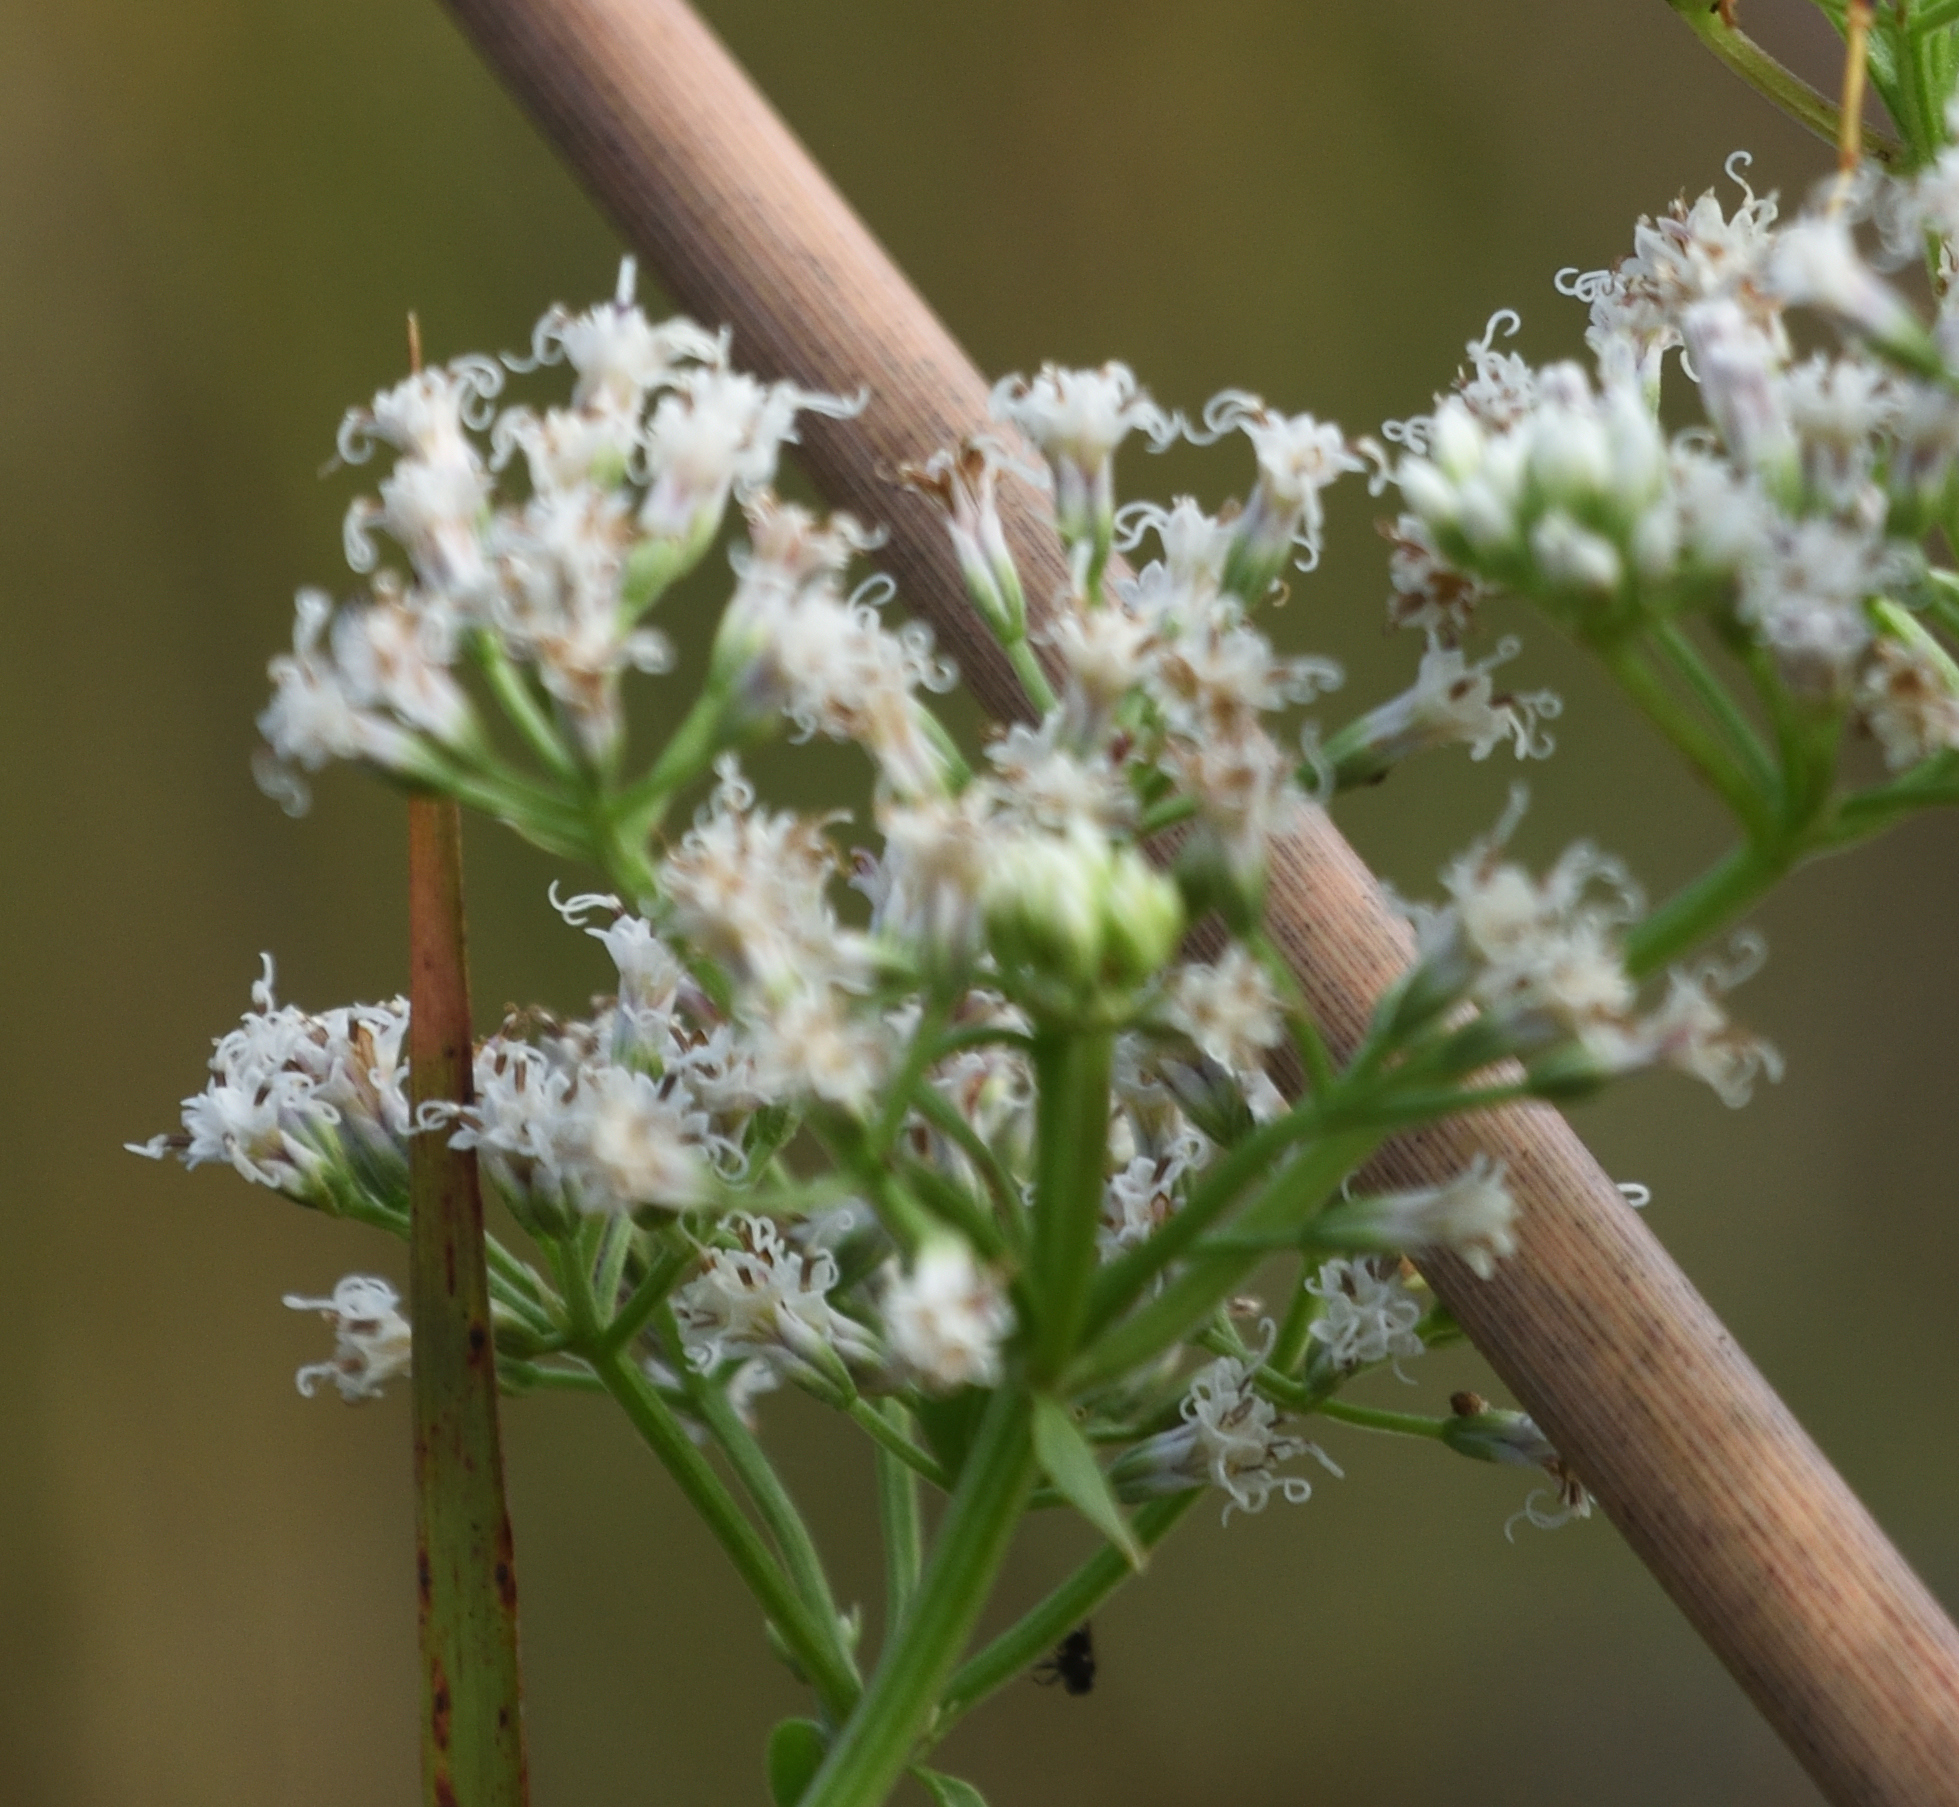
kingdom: Plantae
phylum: Tracheophyta
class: Magnoliopsida
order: Asterales
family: Asteraceae
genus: Mikania
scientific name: Mikania scandens
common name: Climbing hempvine
